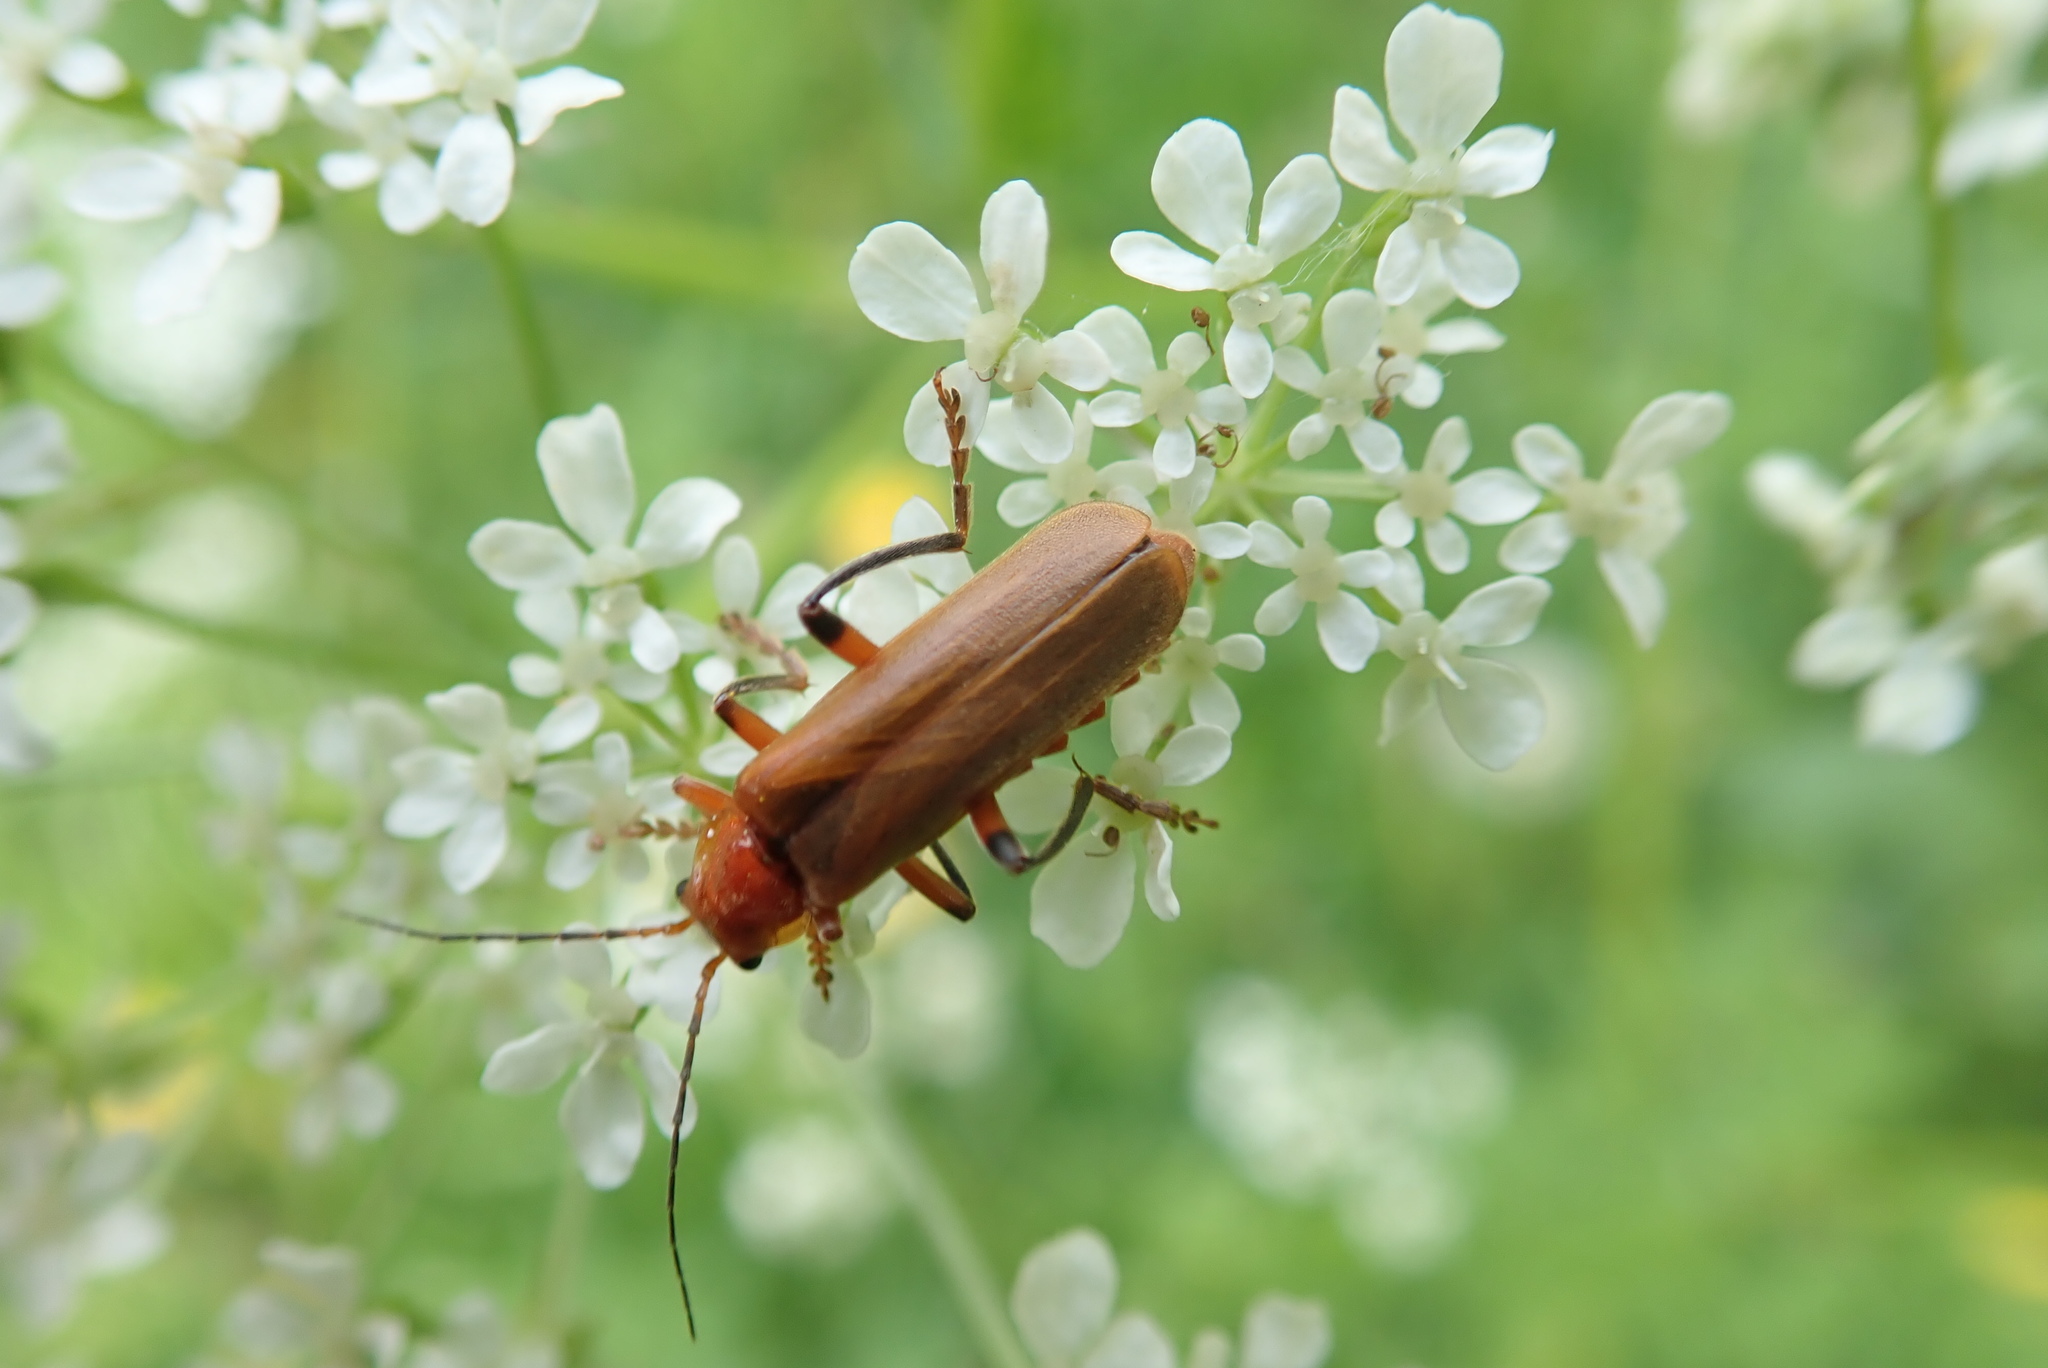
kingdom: Animalia
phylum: Arthropoda
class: Insecta
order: Coleoptera
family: Cantharidae
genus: Cantharis
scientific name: Cantharis livida
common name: Livid soldier beetle
